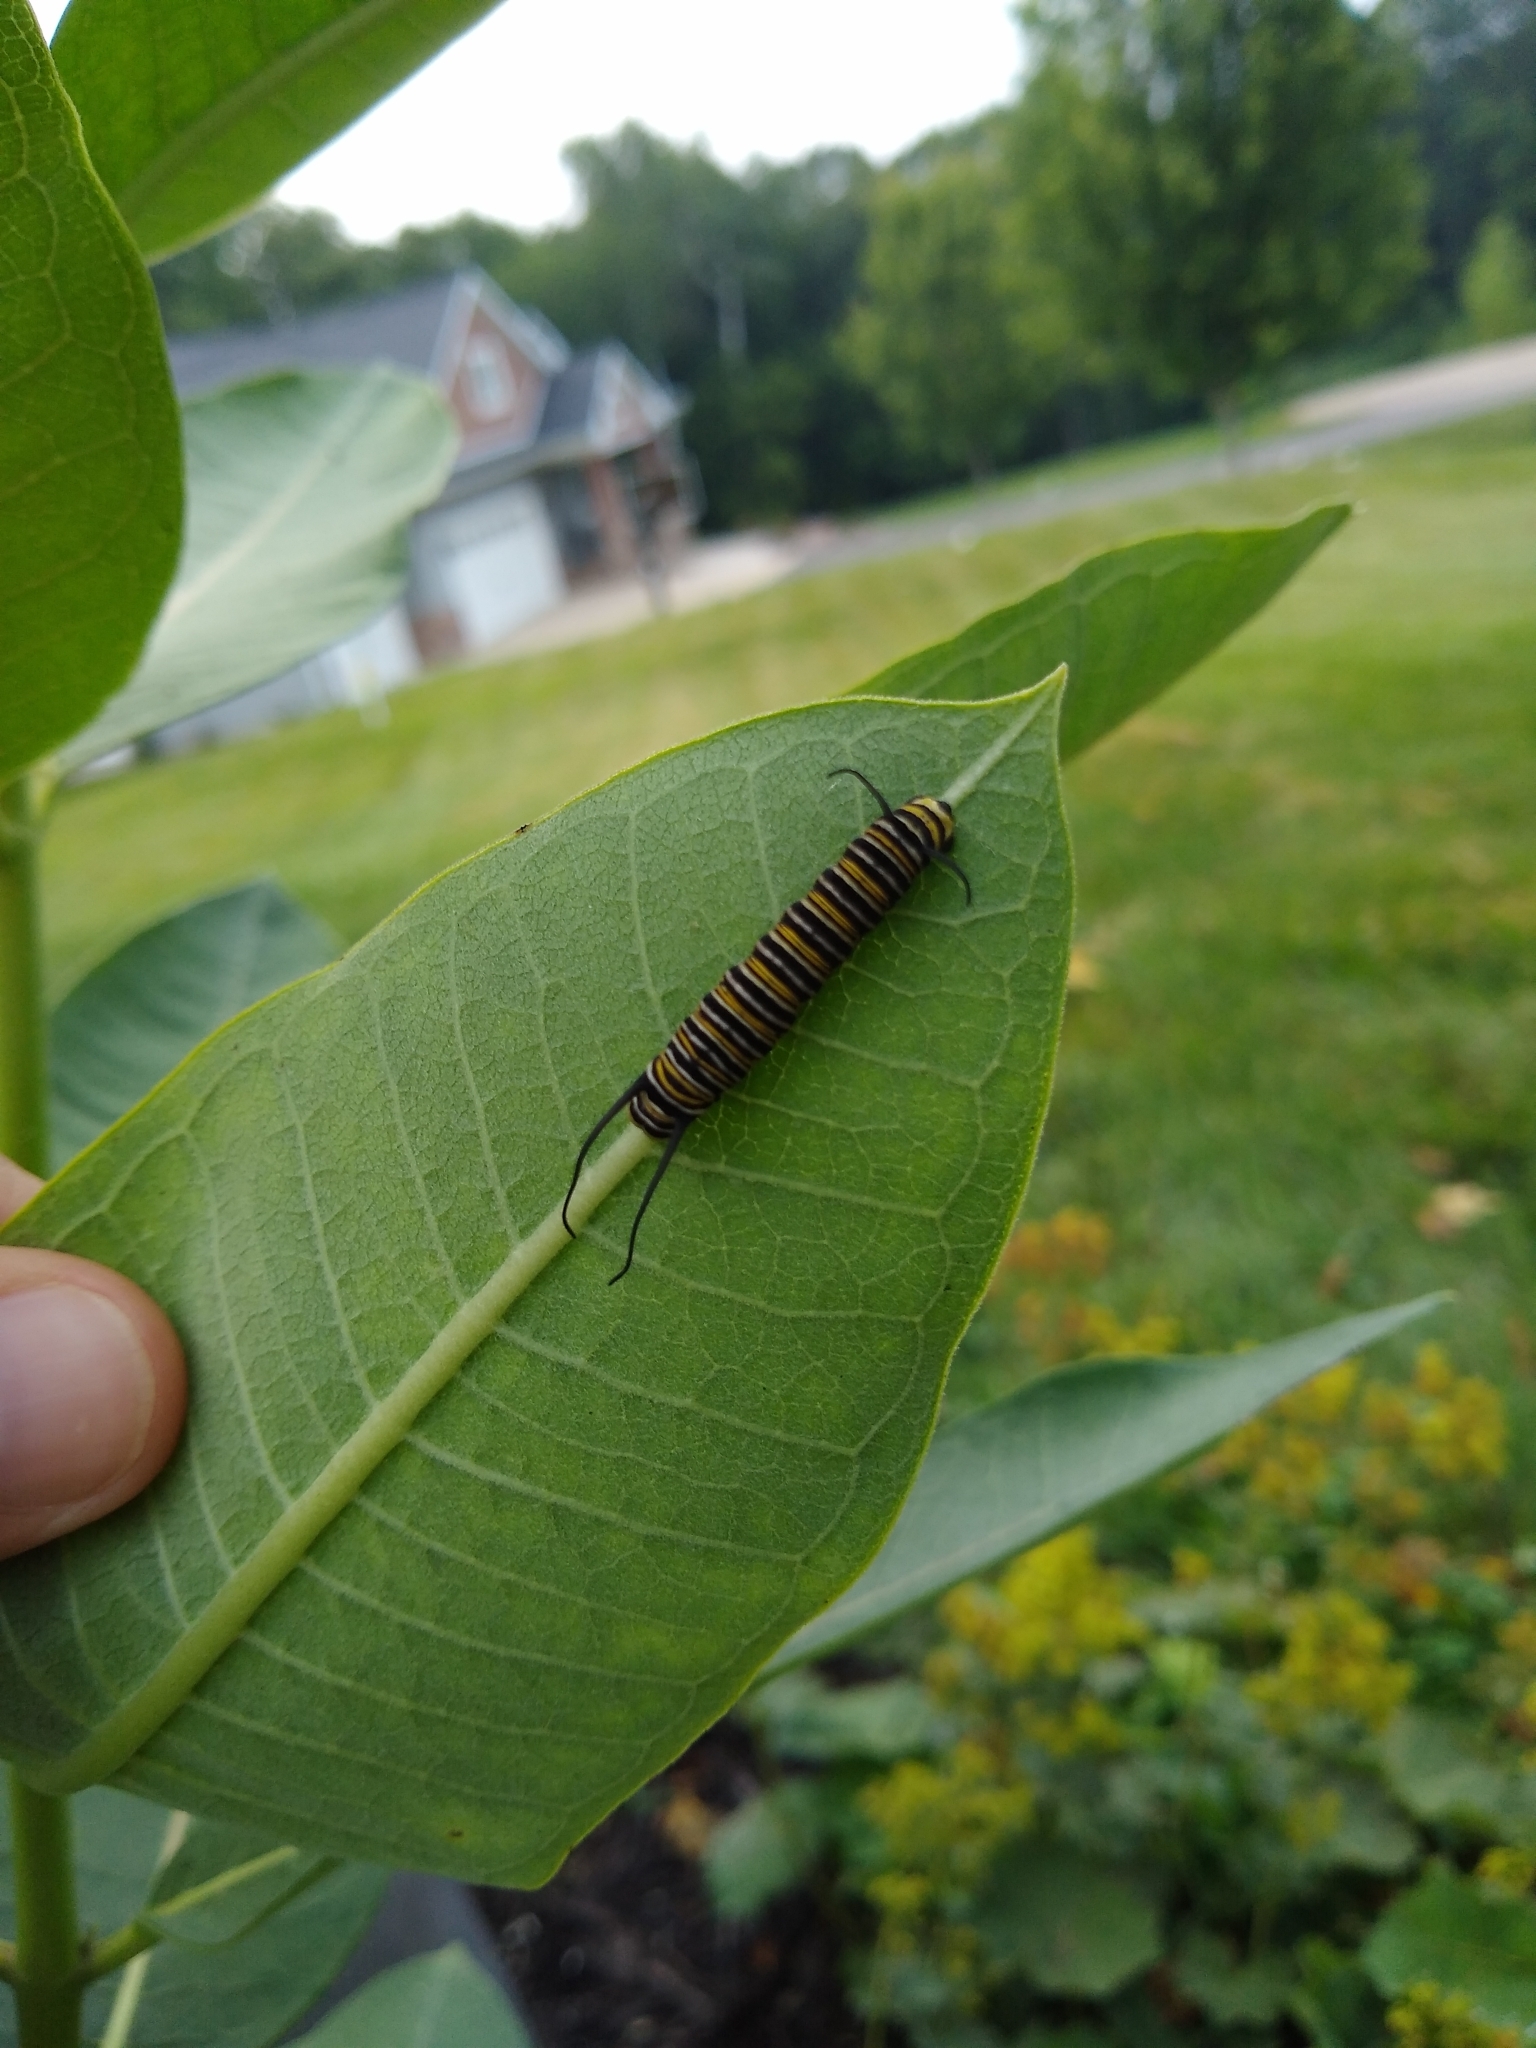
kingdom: Animalia
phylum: Arthropoda
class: Insecta
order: Lepidoptera
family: Nymphalidae
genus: Danaus
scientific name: Danaus plexippus
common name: Monarch
